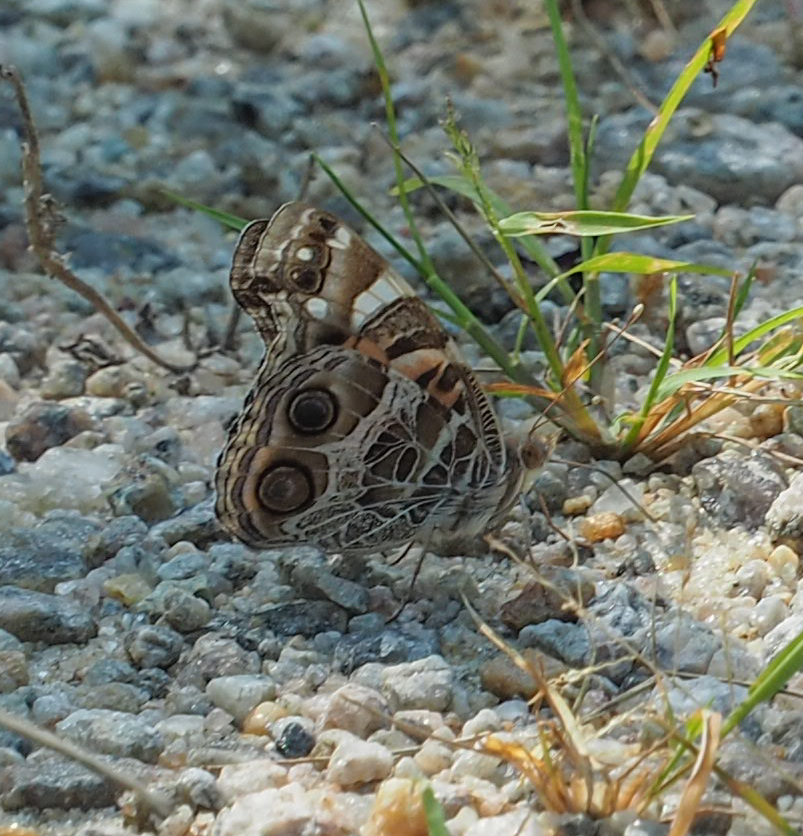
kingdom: Animalia
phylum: Arthropoda
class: Insecta
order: Lepidoptera
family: Nymphalidae
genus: Vanessa
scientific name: Vanessa virginiensis
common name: American lady
